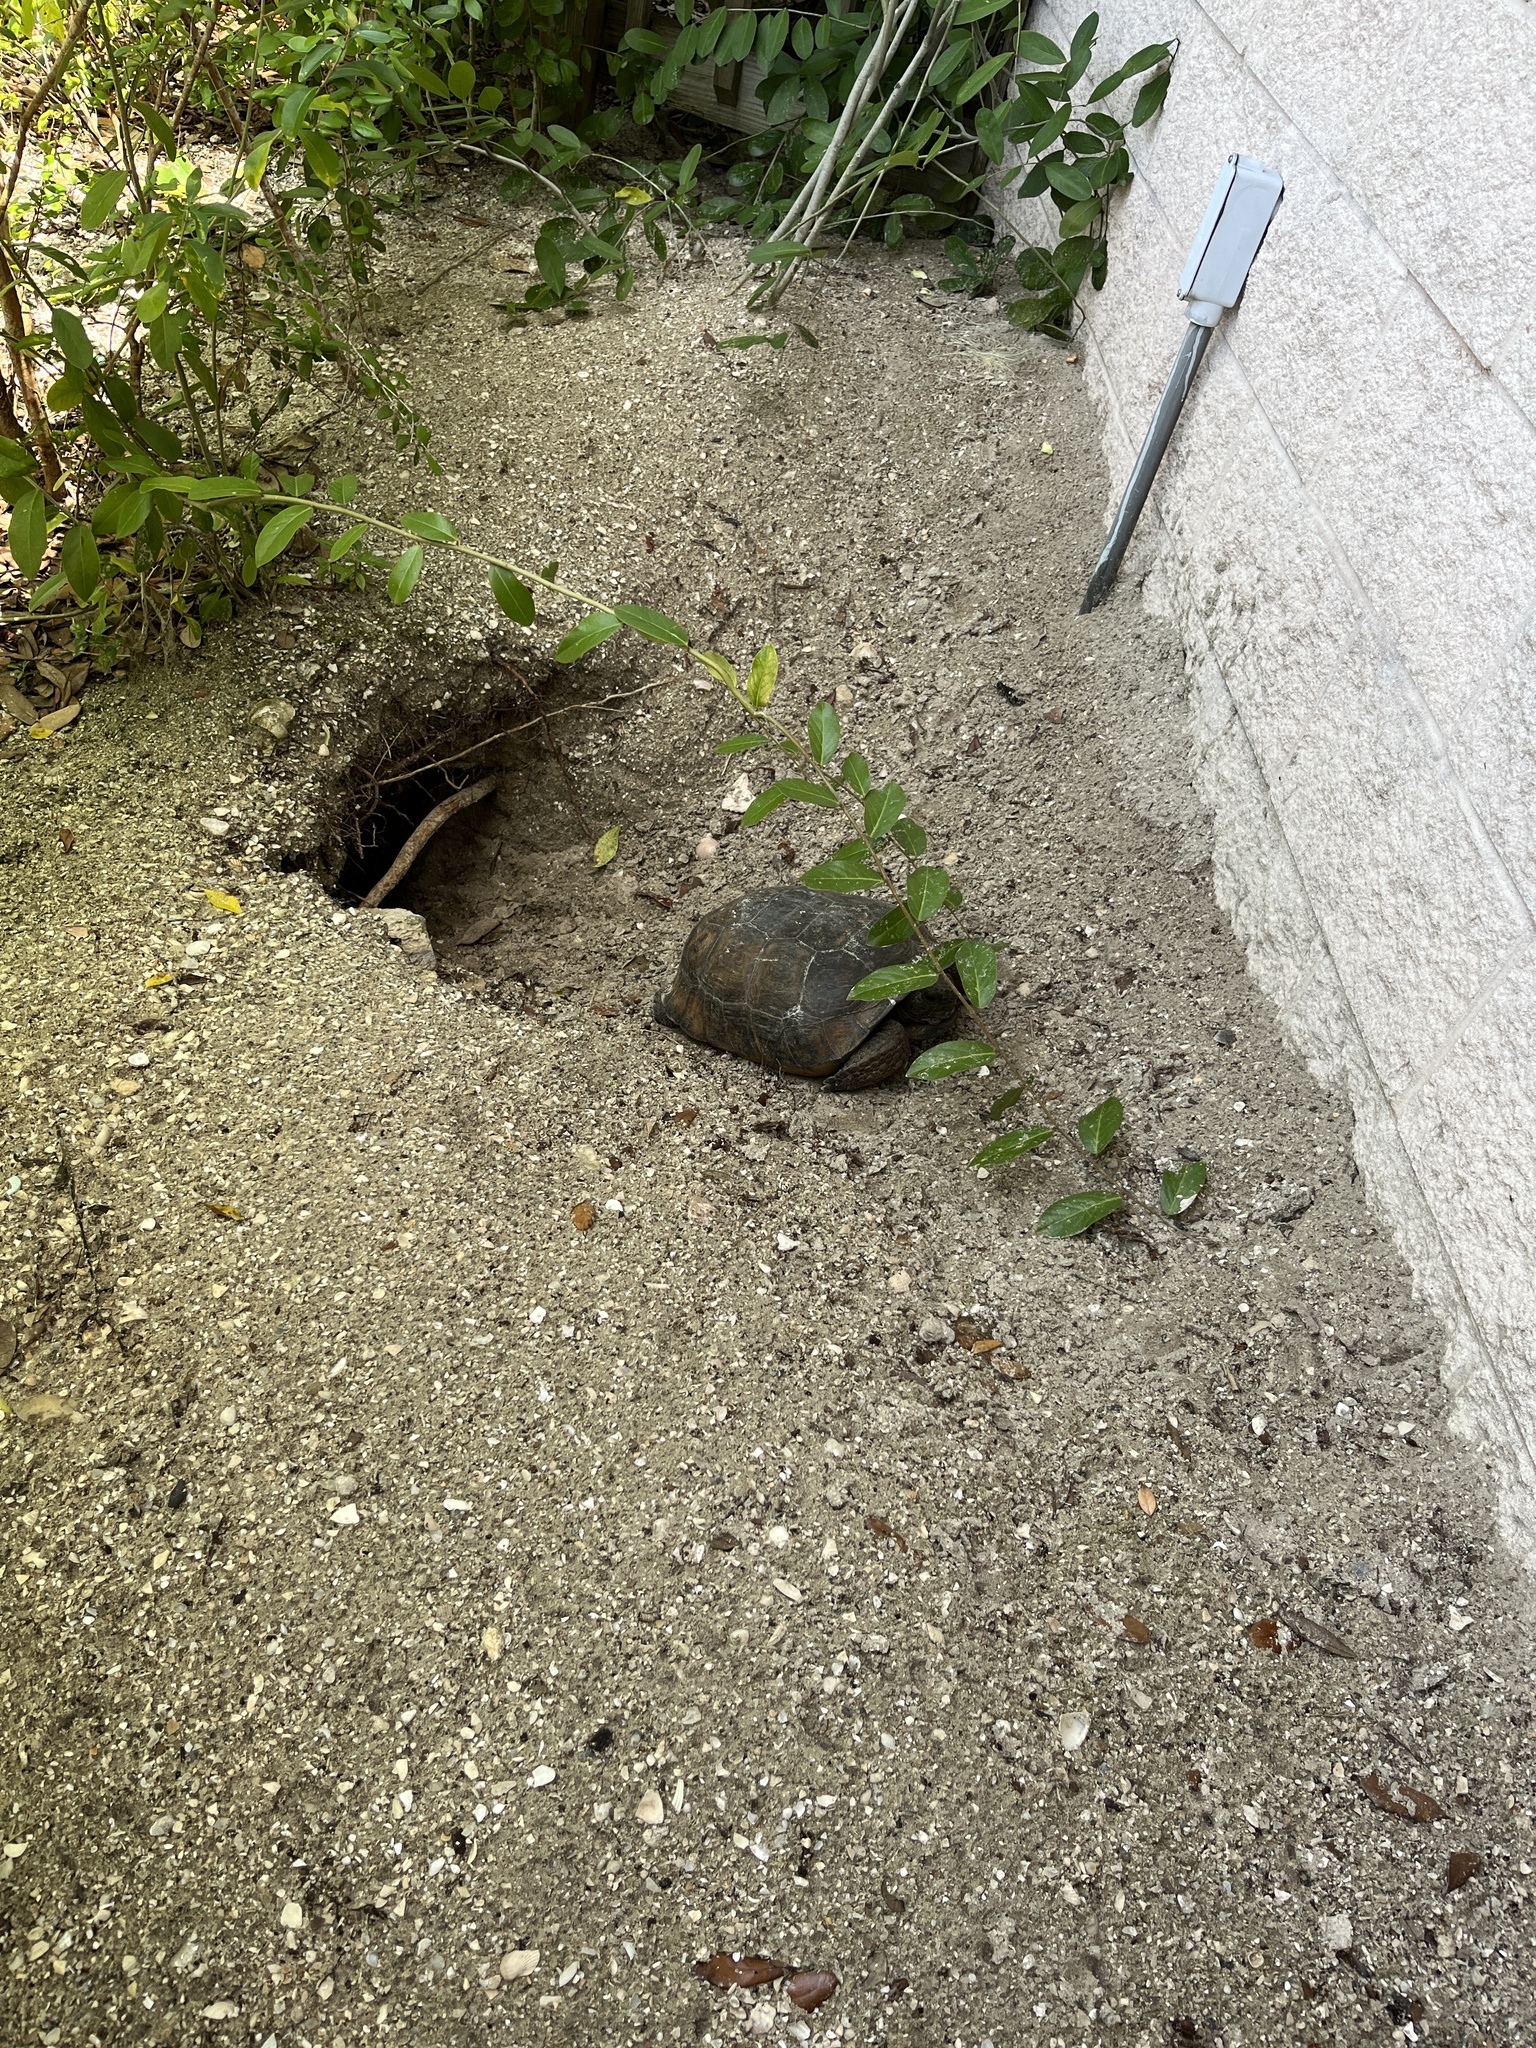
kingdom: Animalia
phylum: Chordata
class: Testudines
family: Testudinidae
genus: Gopherus
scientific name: Gopherus polyphemus
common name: Florida gopher tortoise
